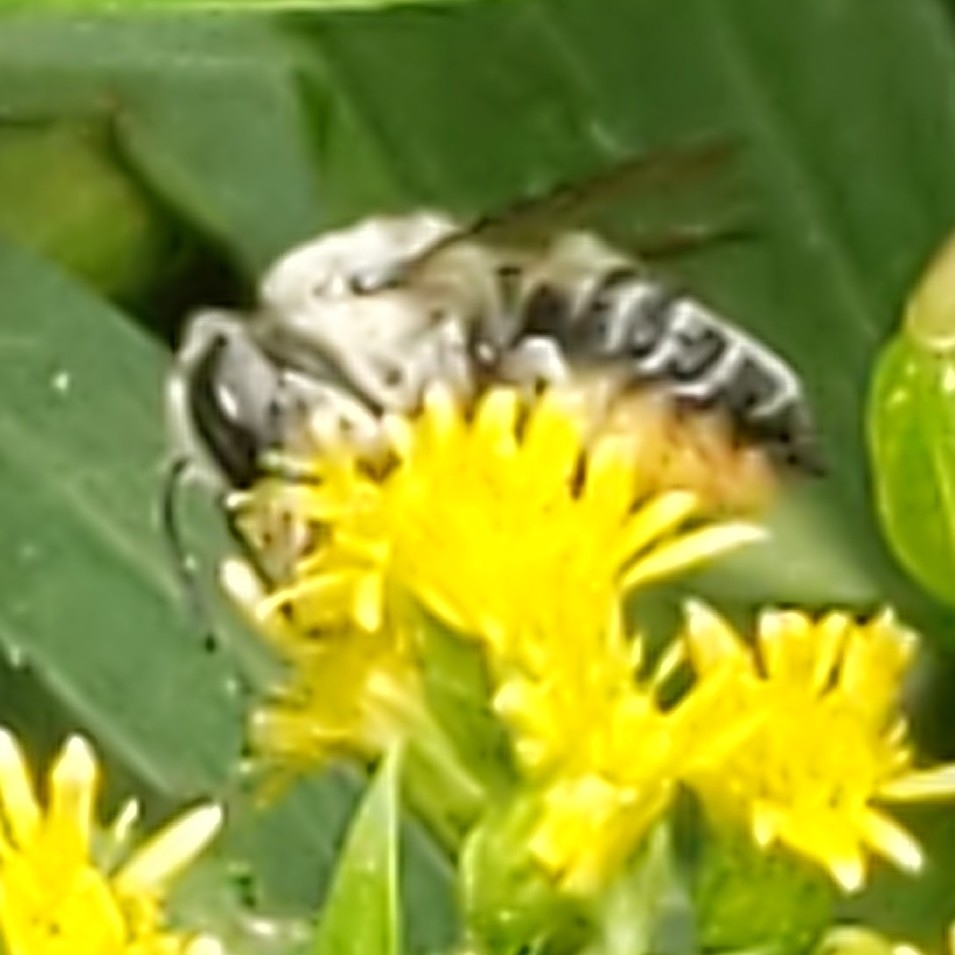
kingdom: Animalia
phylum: Arthropoda
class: Insecta
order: Hymenoptera
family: Megachilidae
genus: Megachile
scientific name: Megachile
